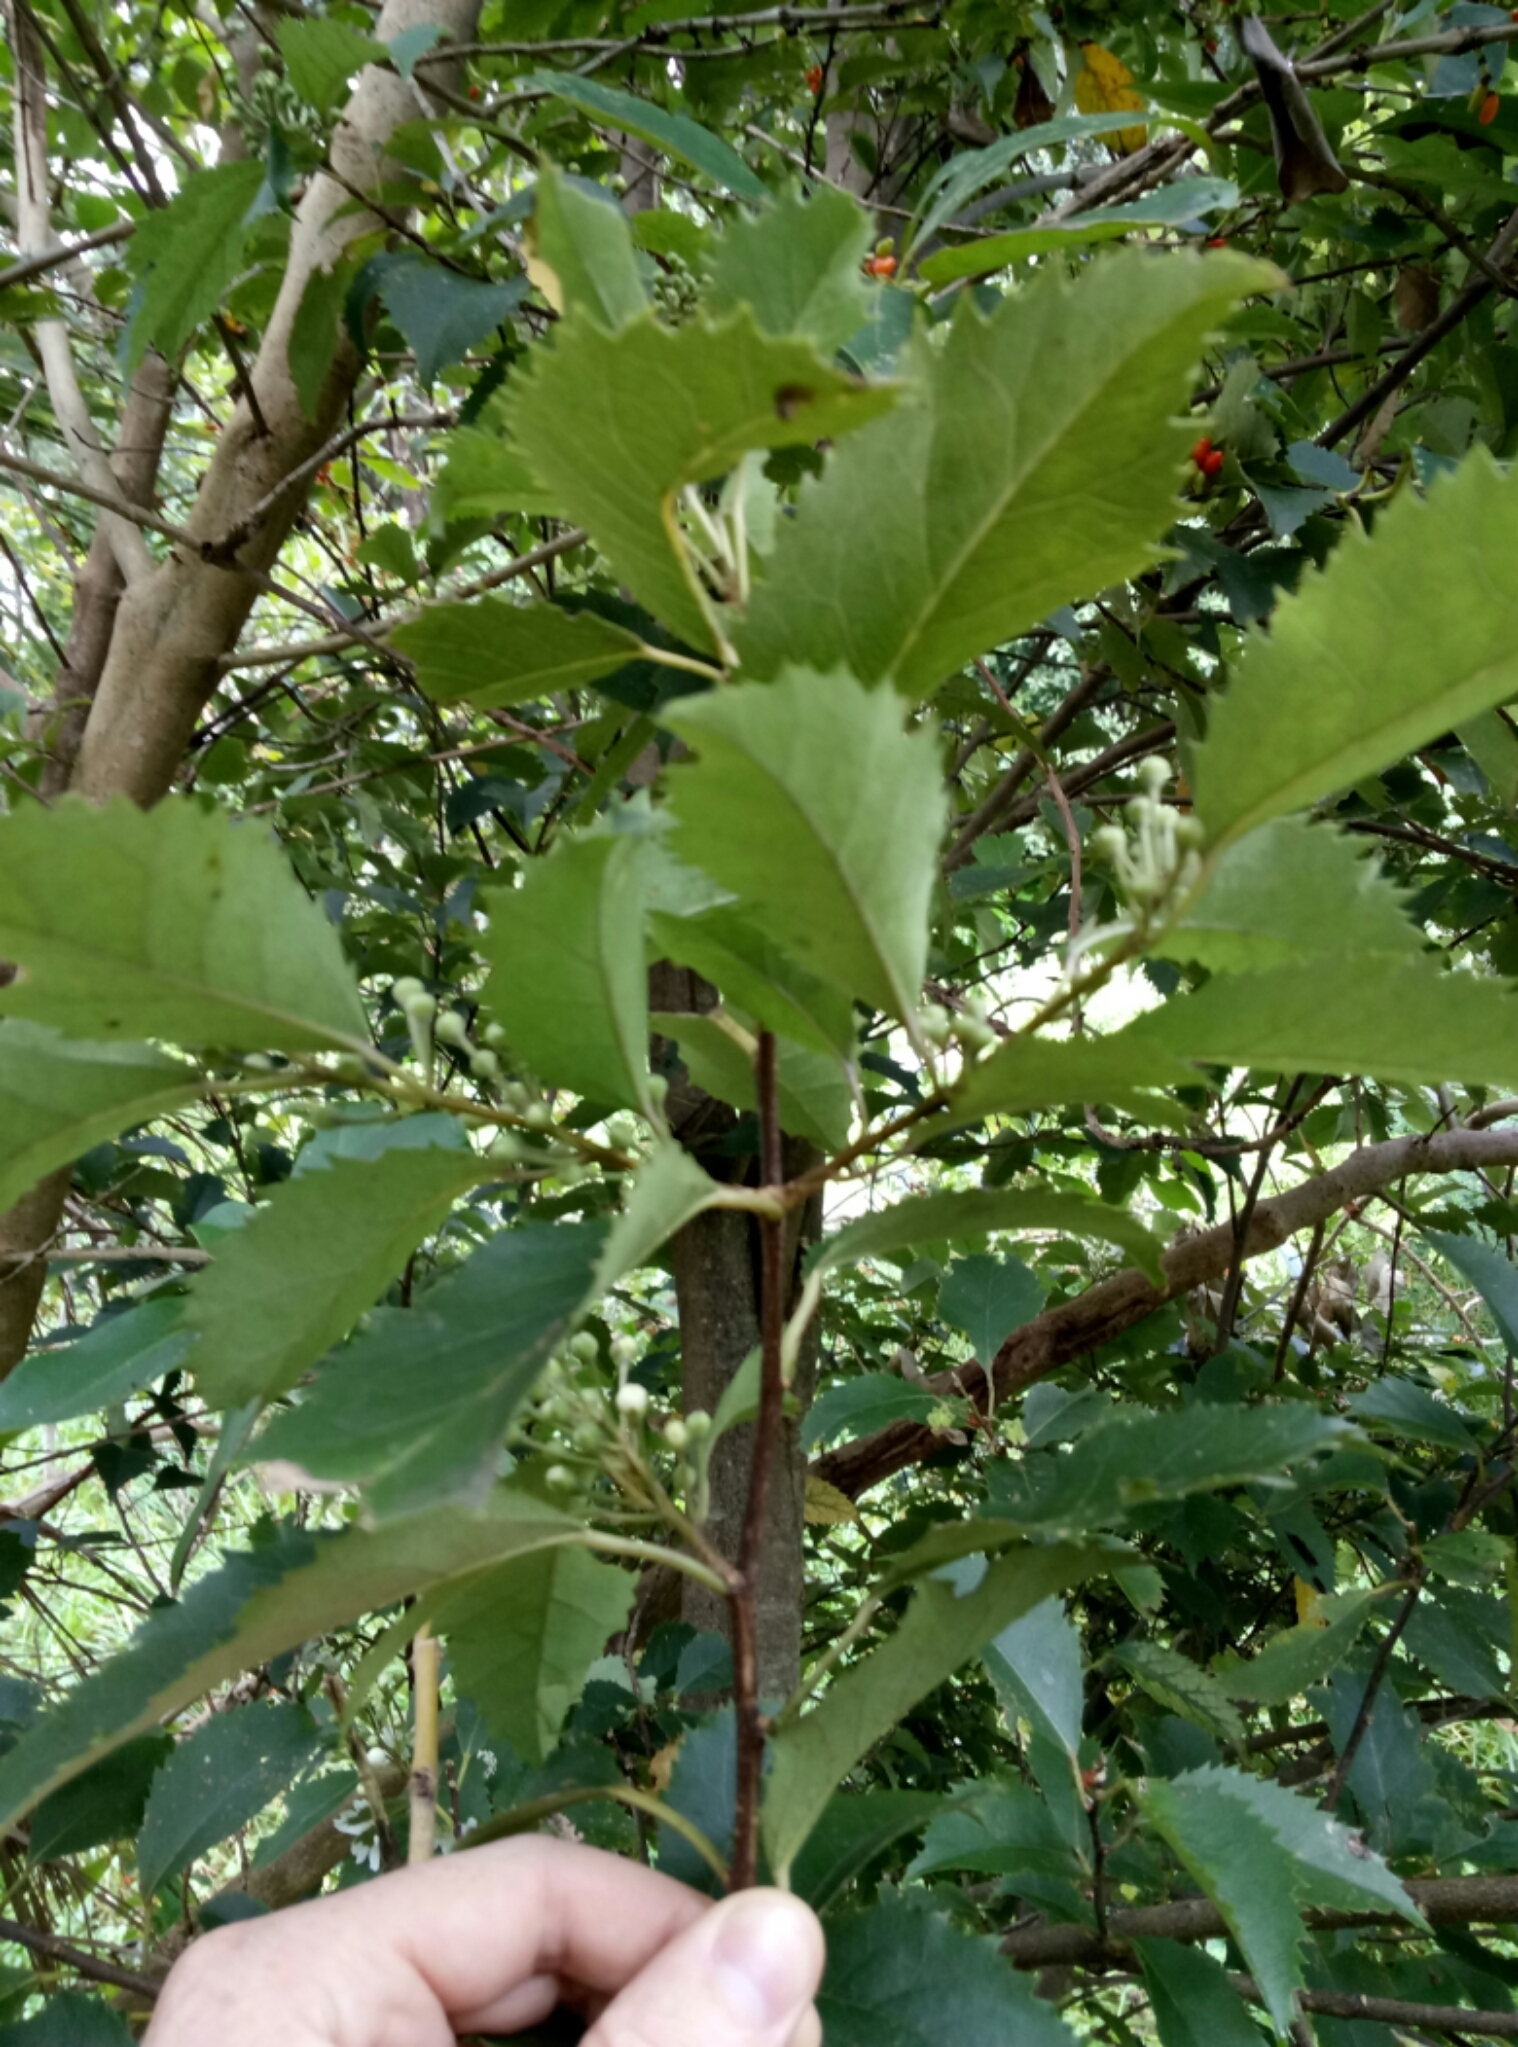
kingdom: Plantae
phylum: Tracheophyta
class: Magnoliopsida
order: Malvales
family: Malvaceae
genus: Hoheria
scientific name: Hoheria populnea
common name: Lacebark
